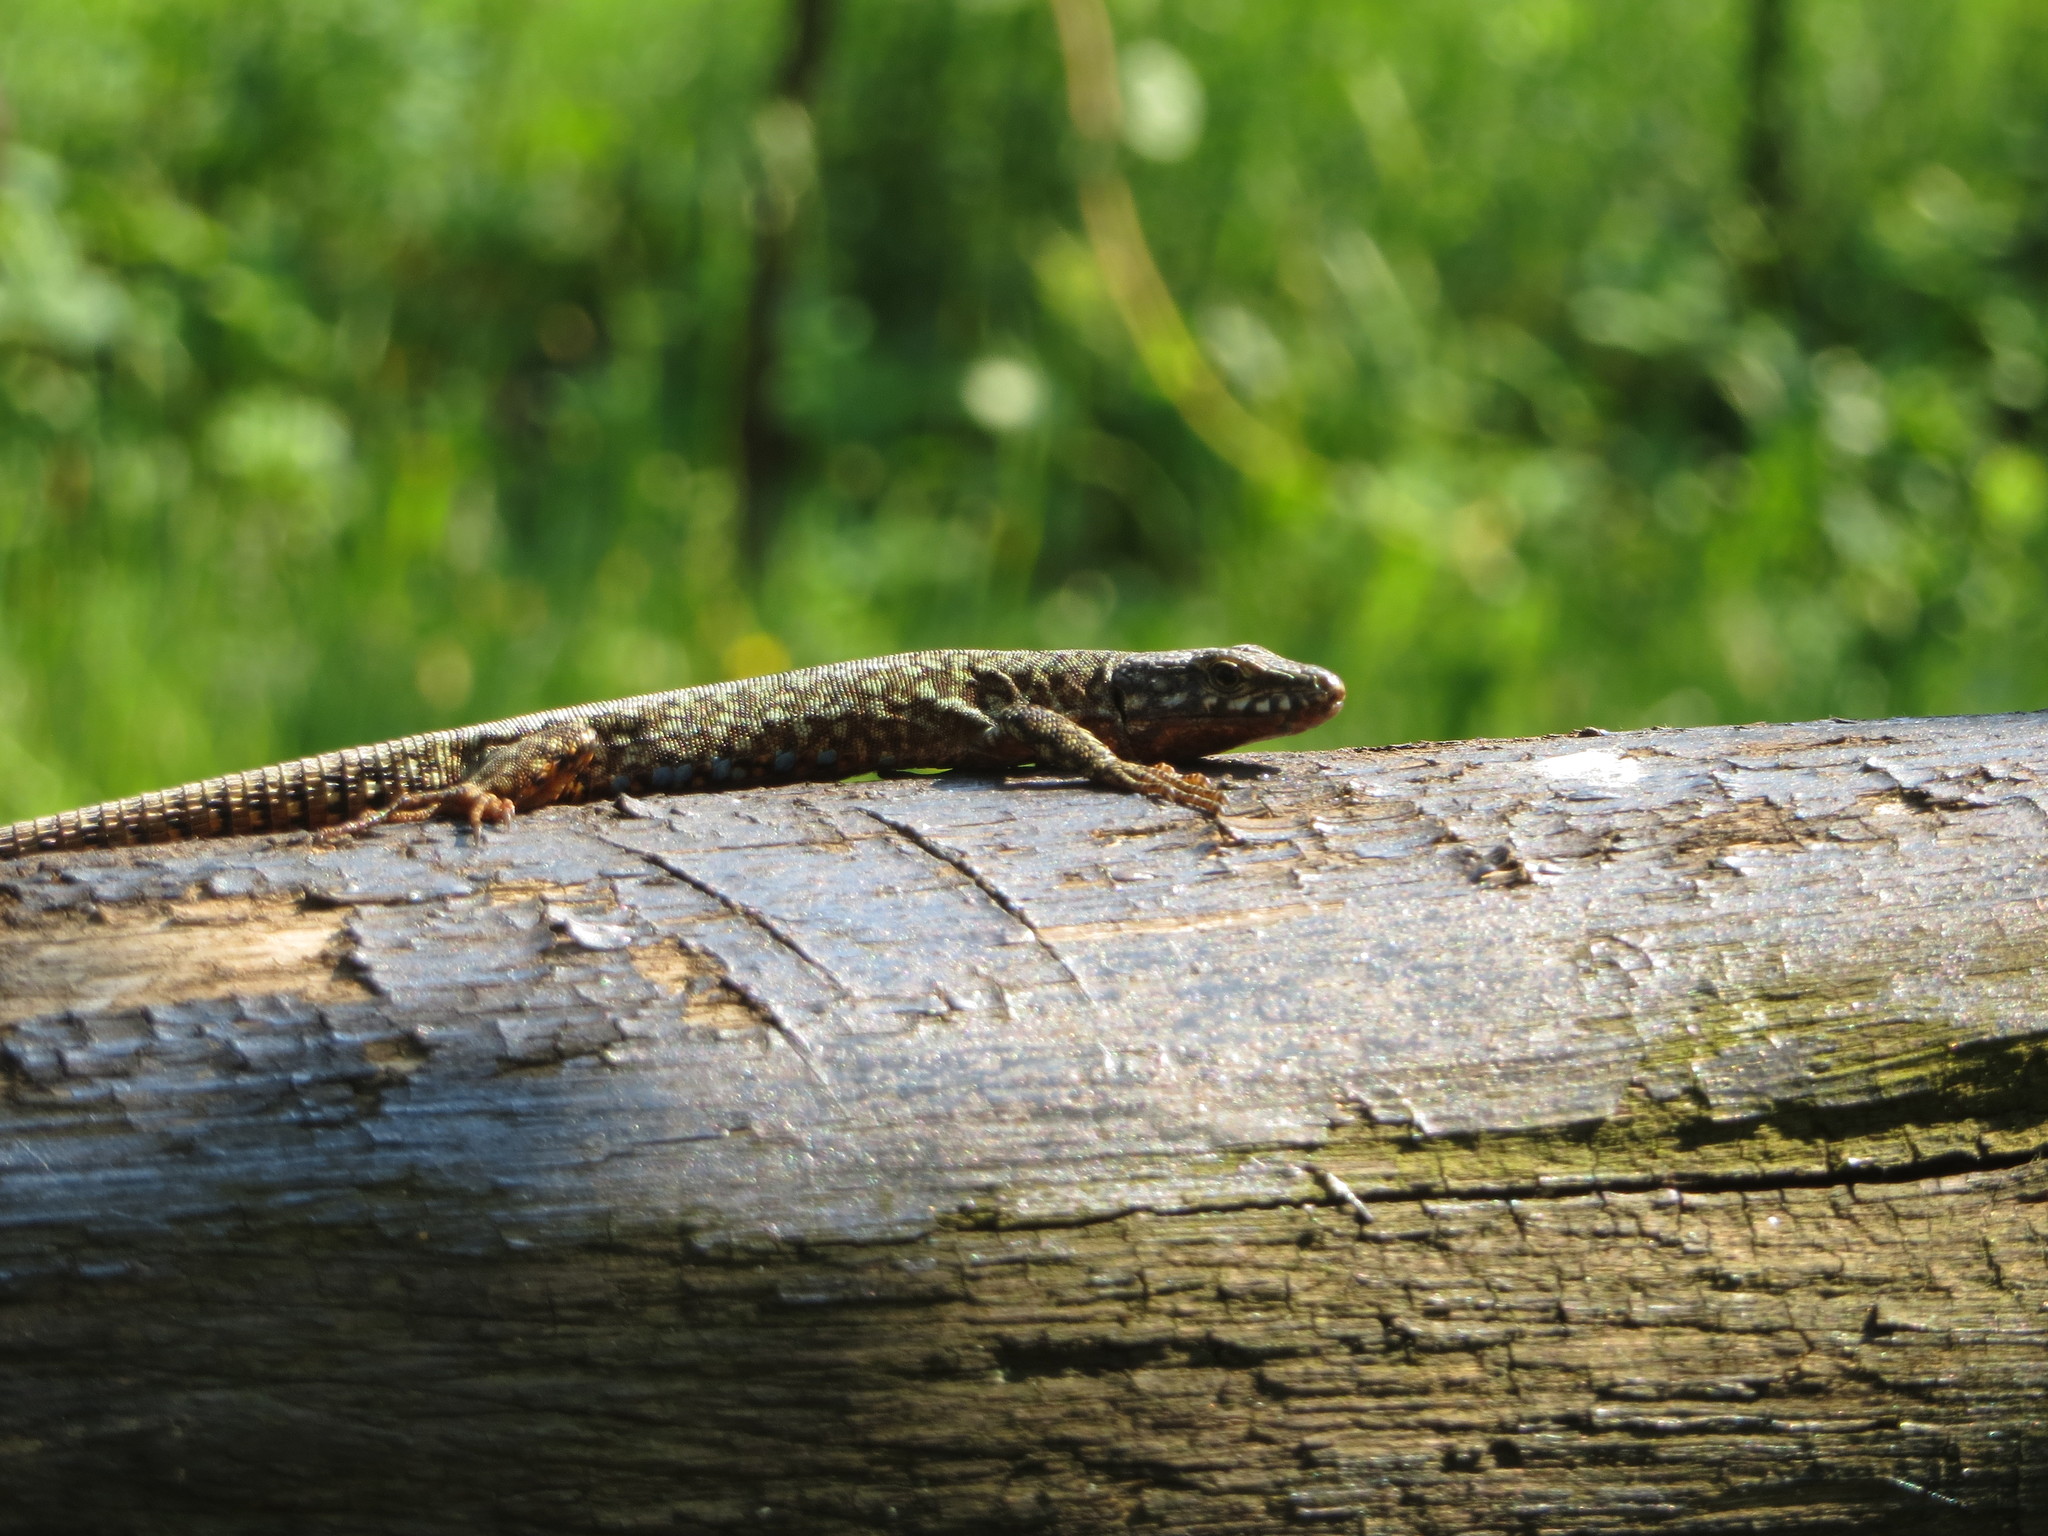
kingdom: Animalia
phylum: Chordata
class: Squamata
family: Lacertidae
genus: Podarcis
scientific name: Podarcis muralis
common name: Common wall lizard
